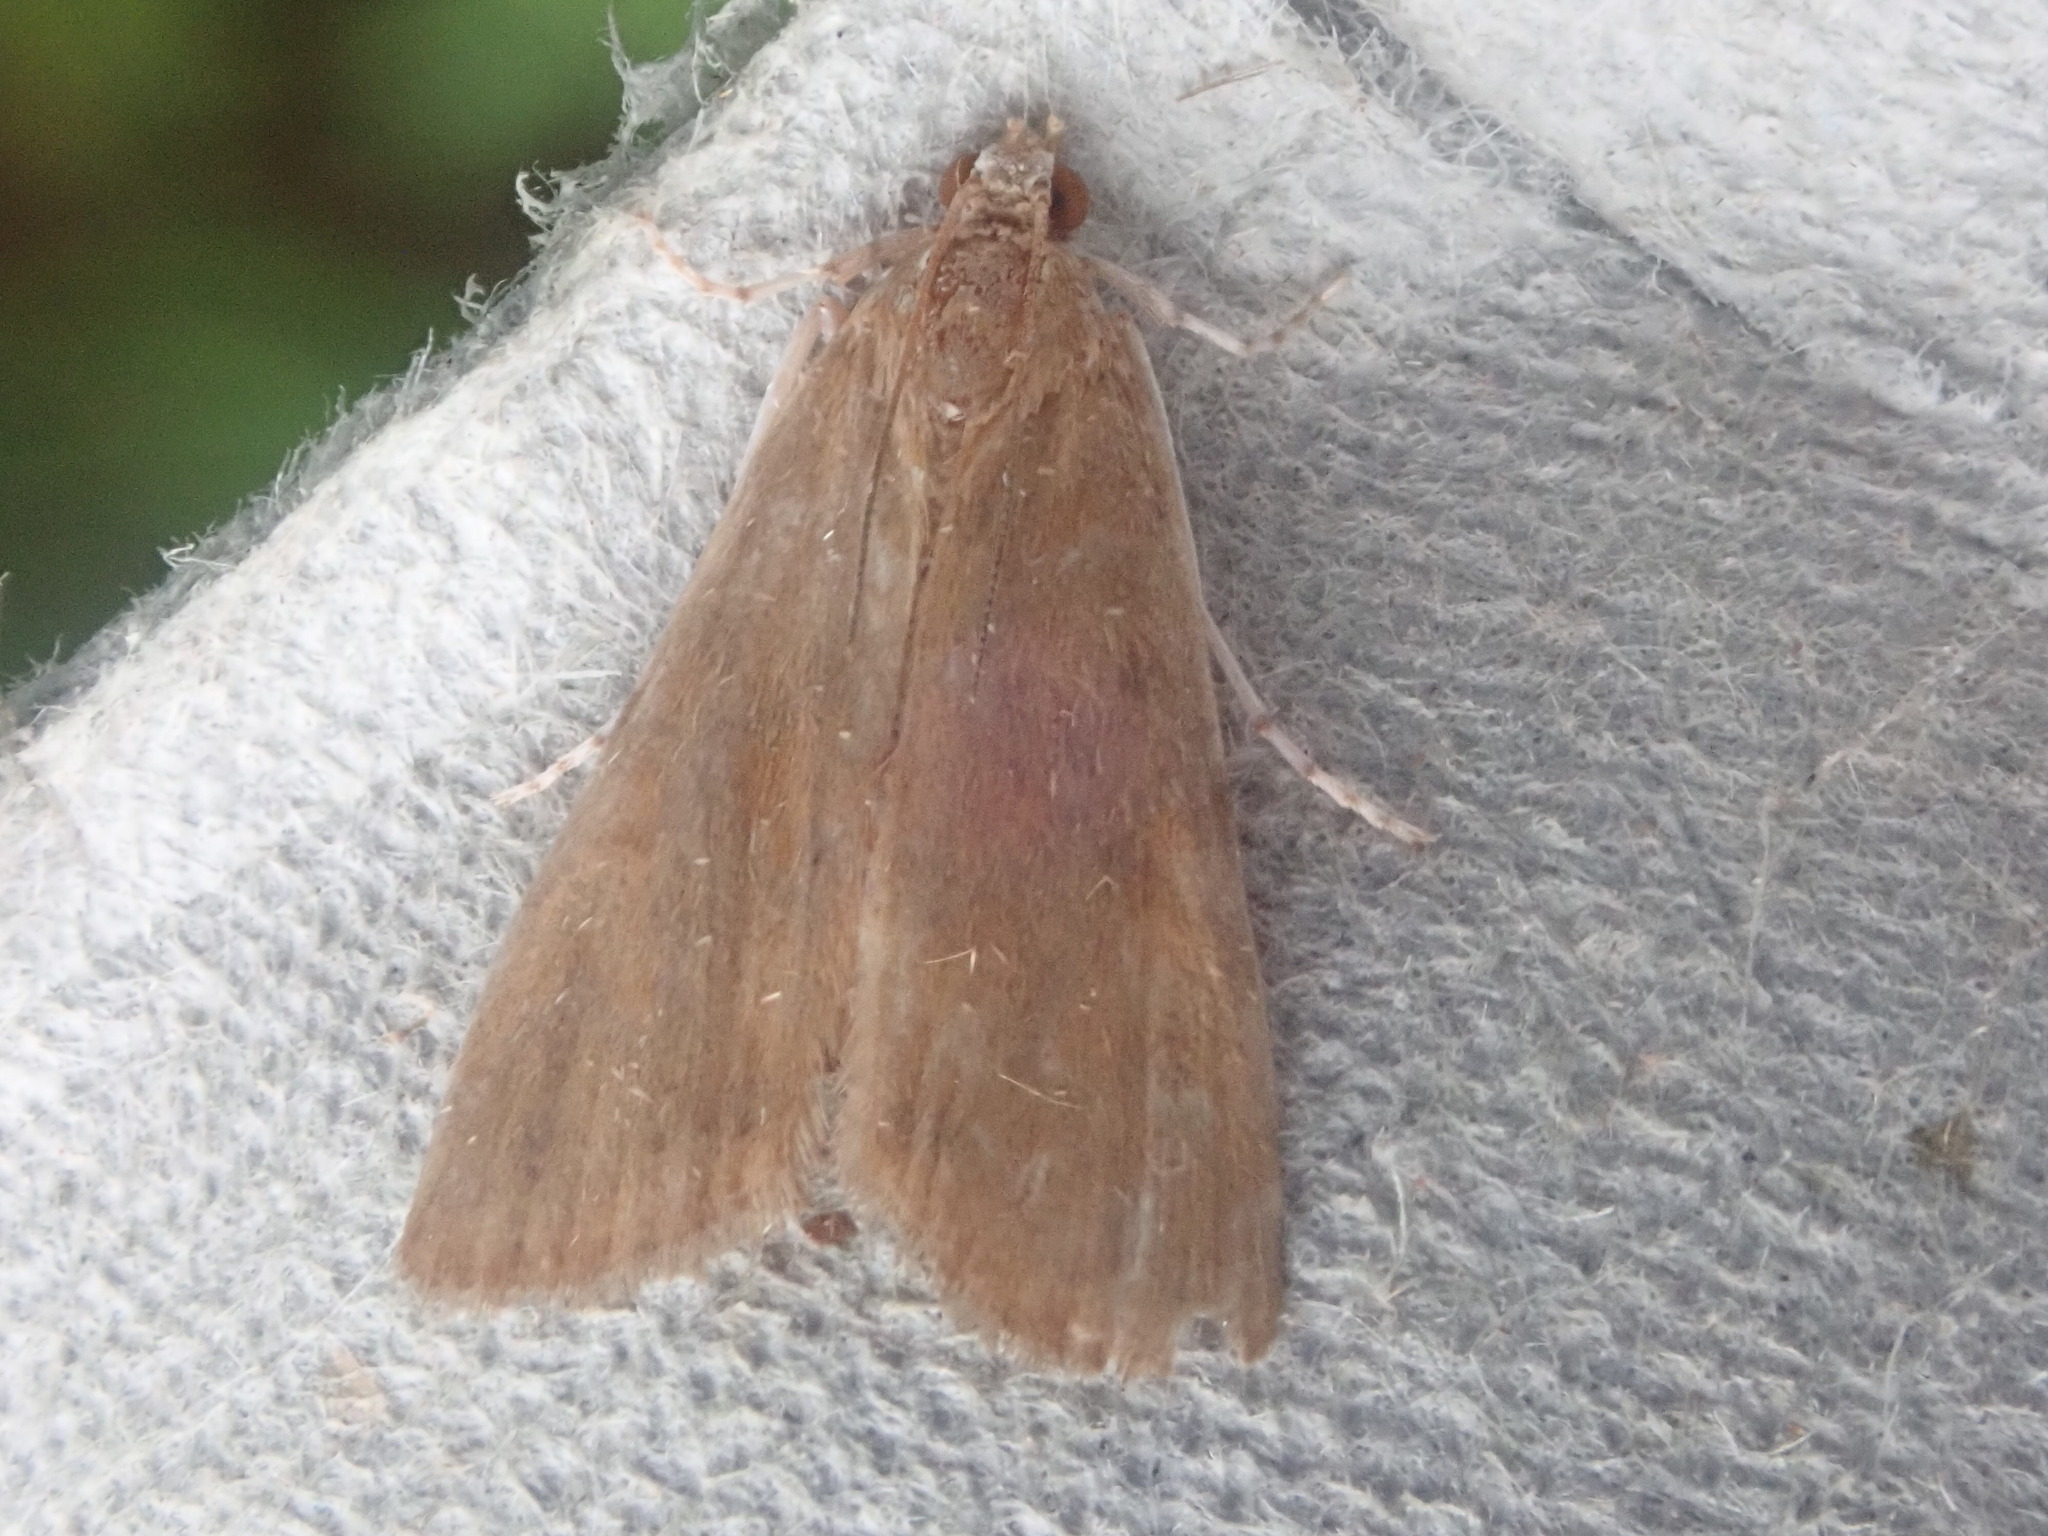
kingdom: Animalia
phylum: Arthropoda
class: Insecta
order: Lepidoptera
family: Crambidae
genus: Elophila
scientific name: Elophila gyralis
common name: Waterlily borer moth
